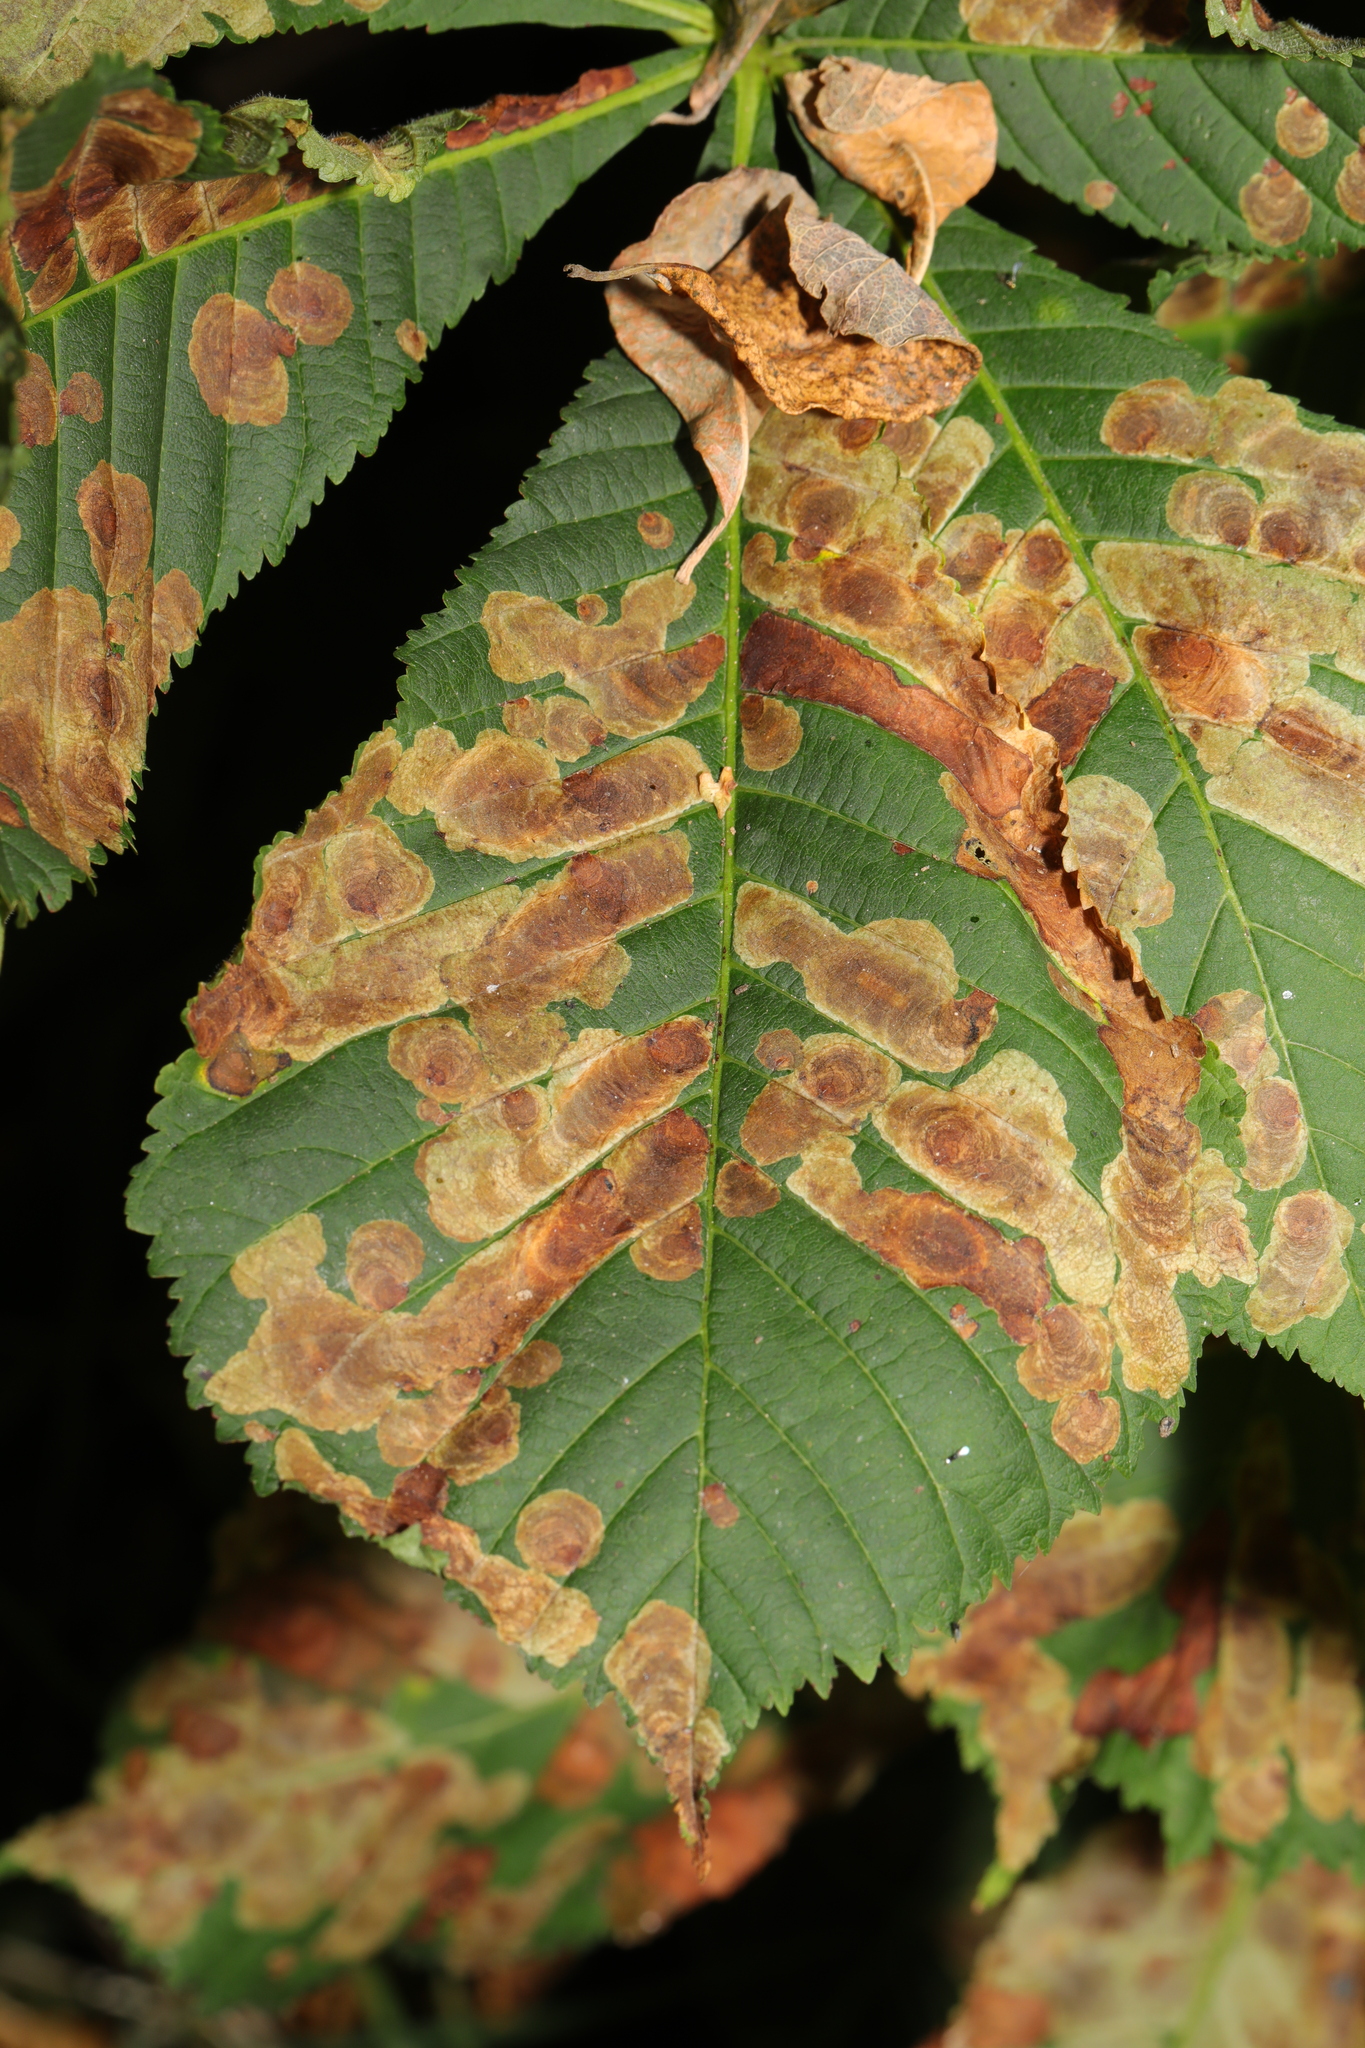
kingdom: Animalia
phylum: Arthropoda
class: Insecta
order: Lepidoptera
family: Gracillariidae
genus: Cameraria
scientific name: Cameraria ohridella
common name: Horse-chestnut leaf-miner
